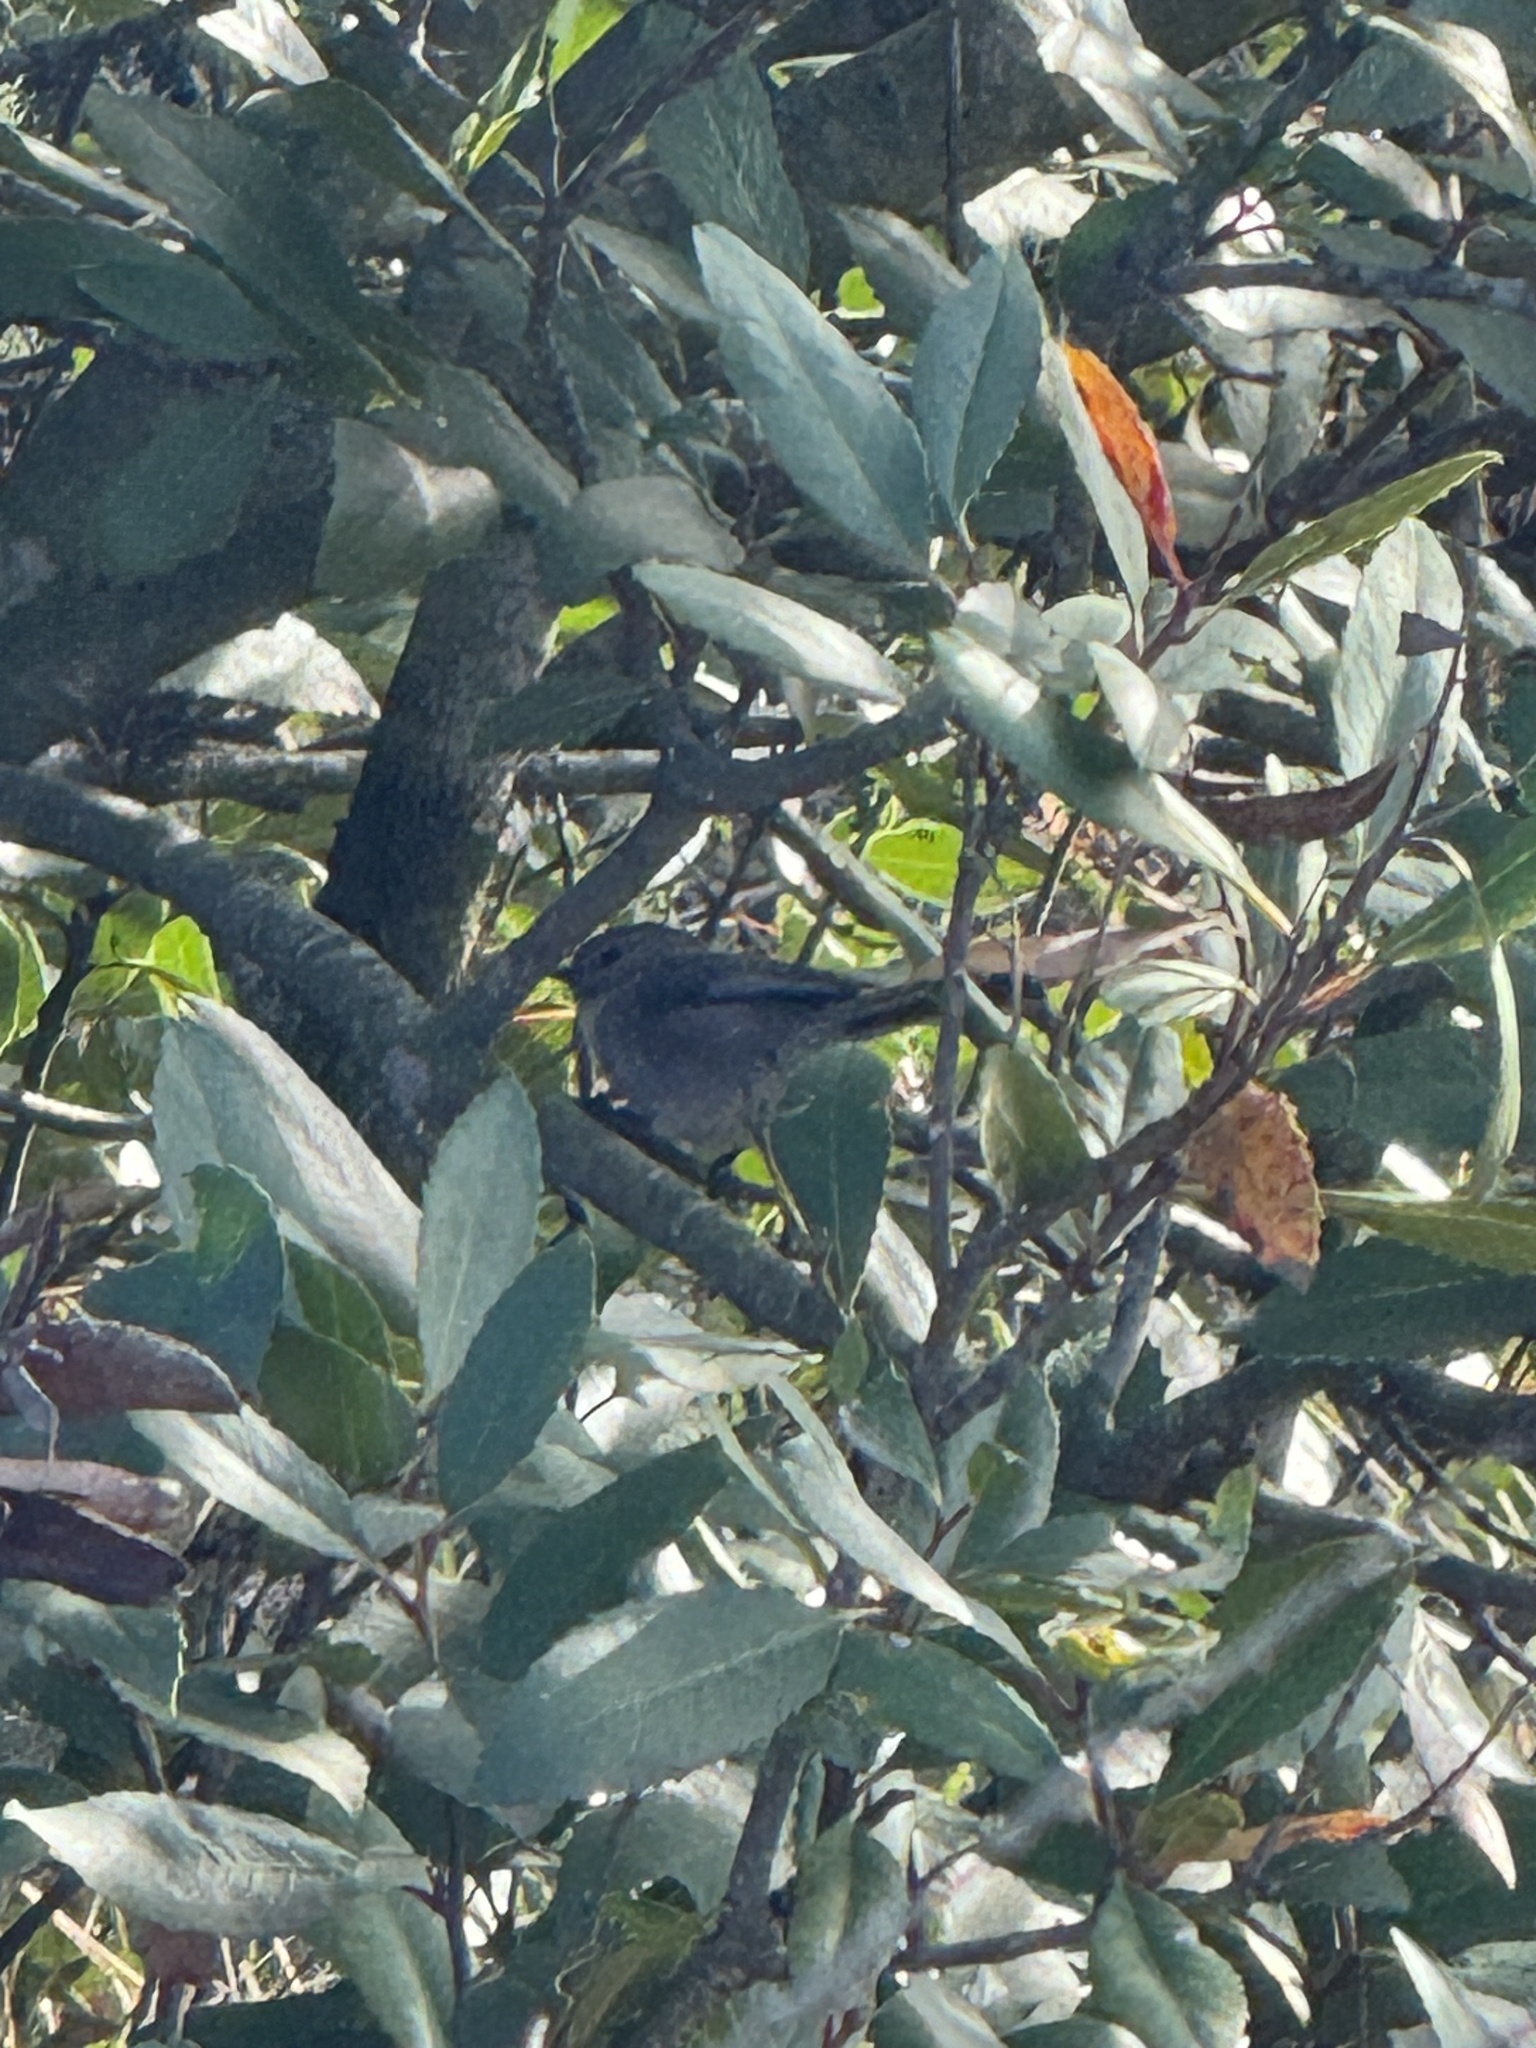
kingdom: Animalia
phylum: Chordata
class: Aves
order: Passeriformes
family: Aegithalidae
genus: Psaltriparus
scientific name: Psaltriparus minimus
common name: American bushtit
